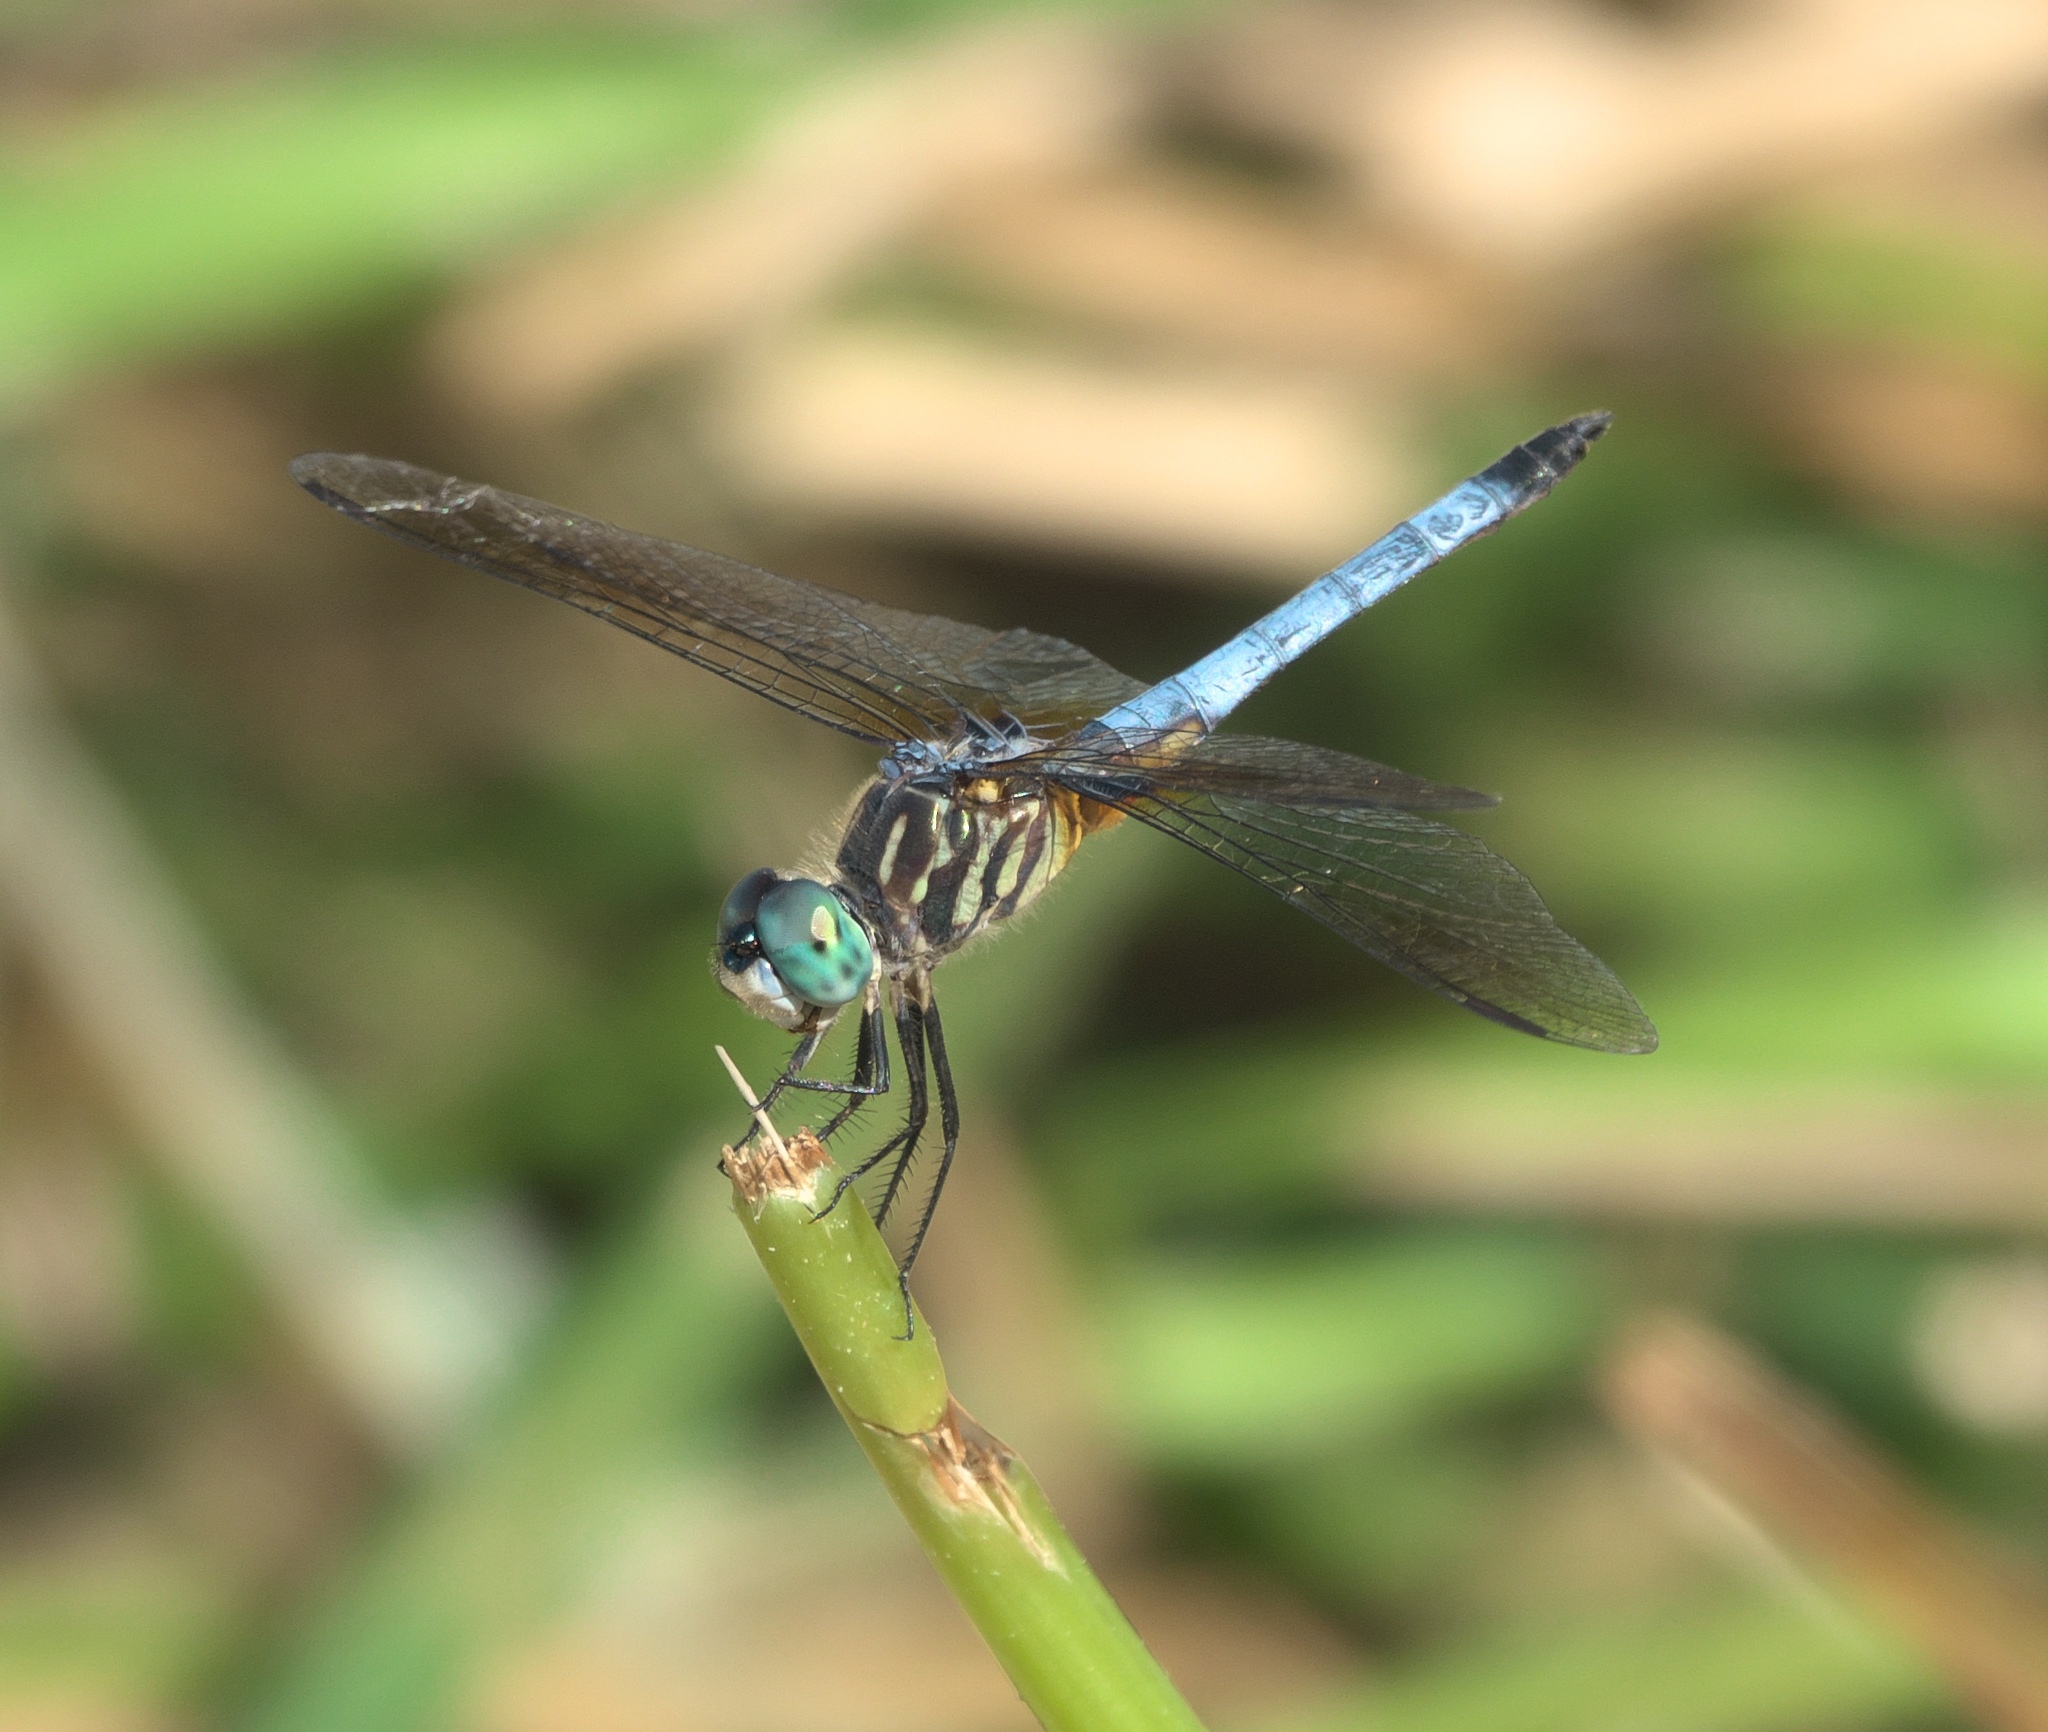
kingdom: Animalia
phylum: Arthropoda
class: Insecta
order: Odonata
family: Libellulidae
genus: Pachydiplax
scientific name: Pachydiplax longipennis
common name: Blue dasher
